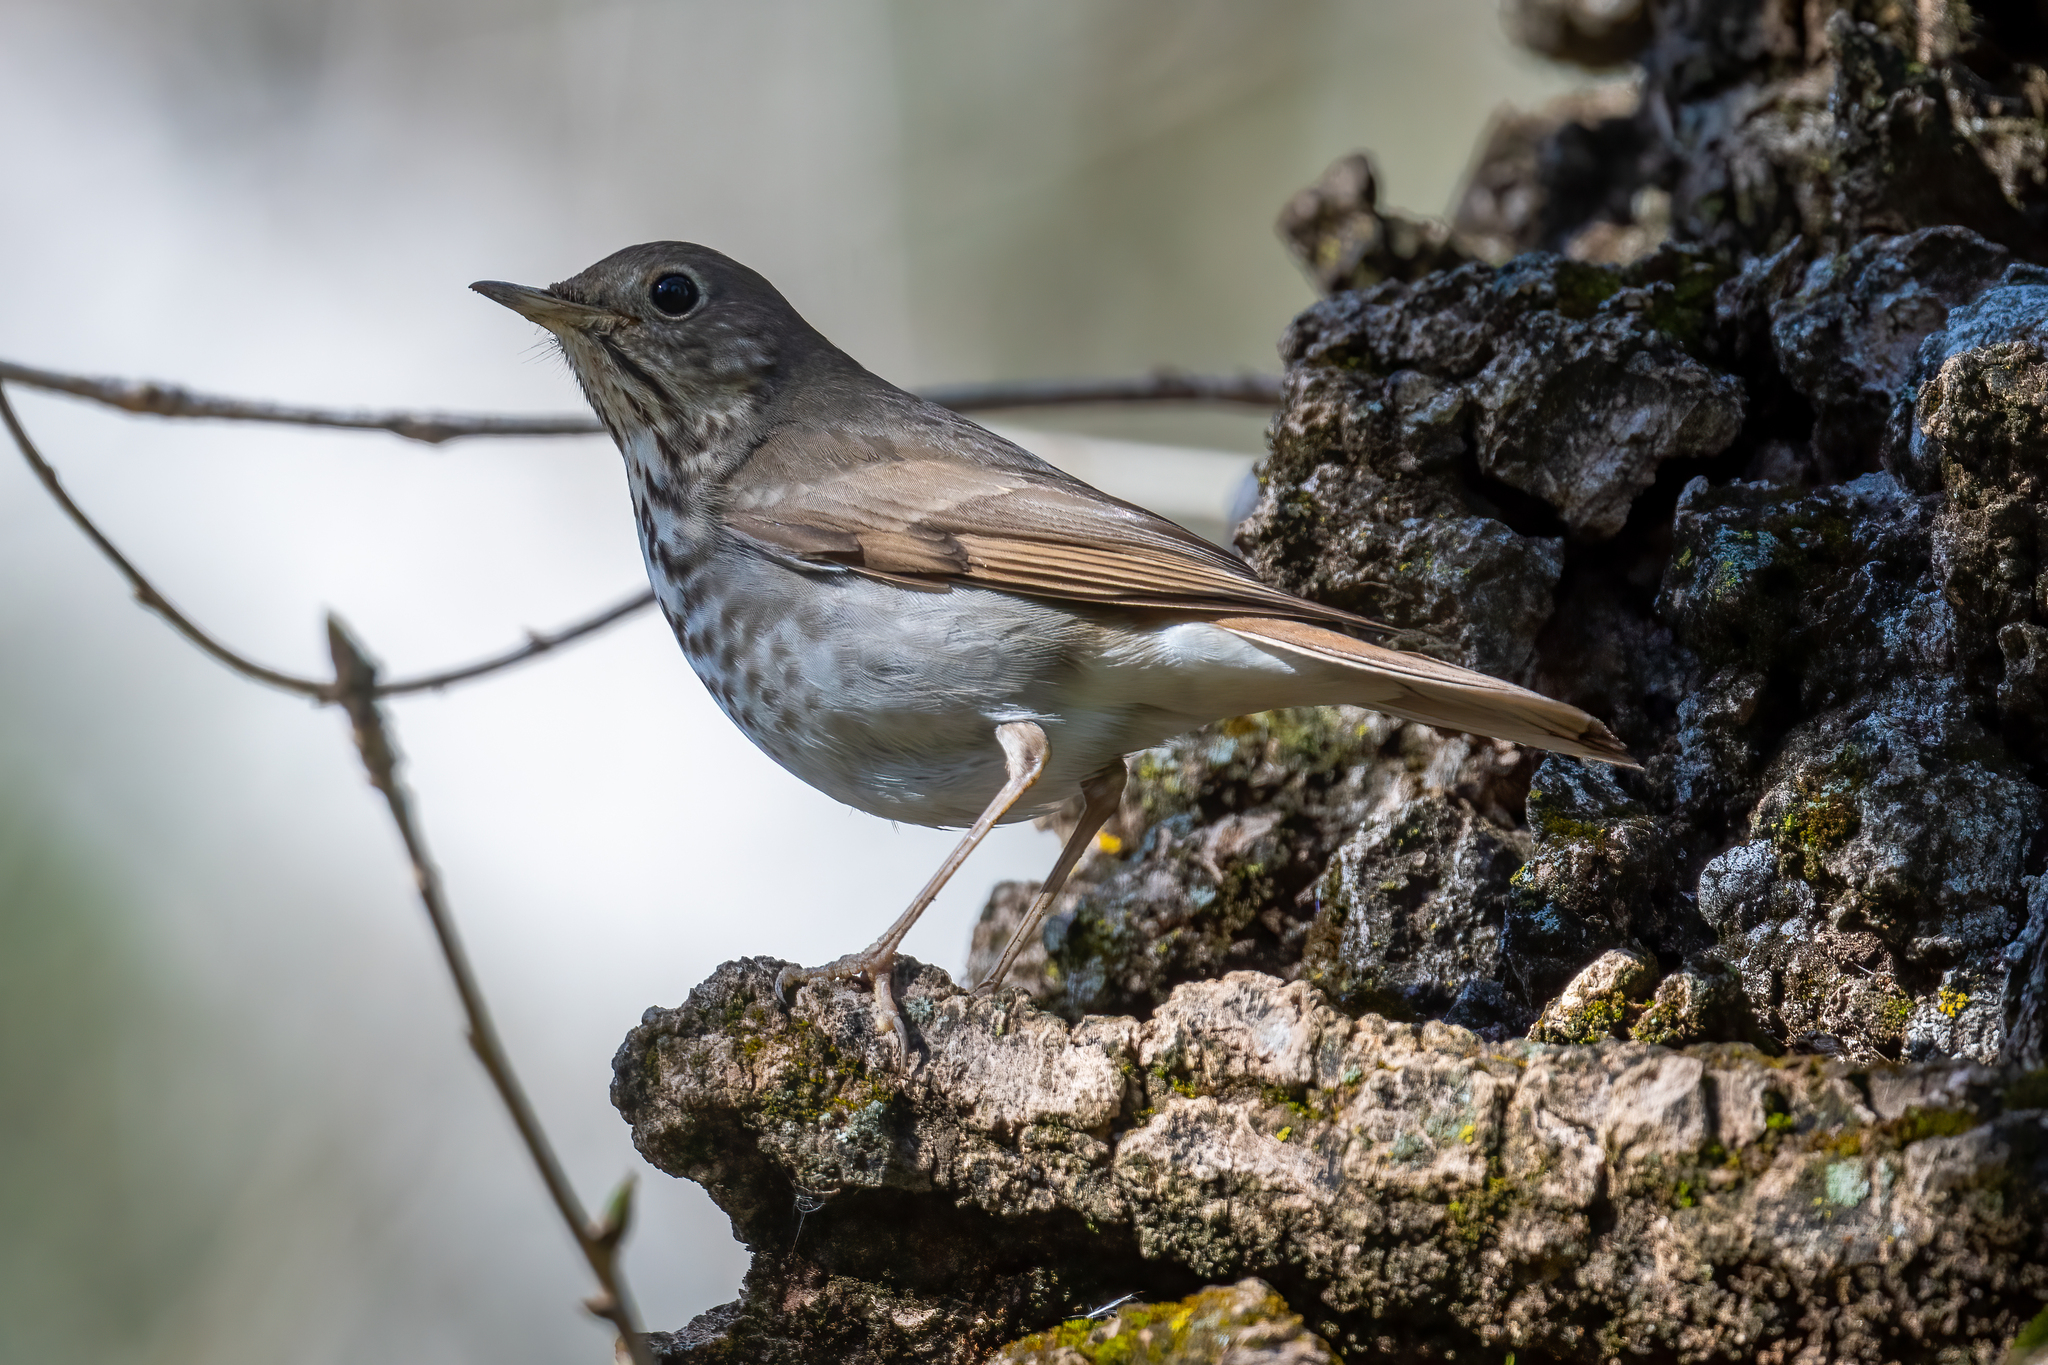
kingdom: Animalia
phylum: Chordata
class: Aves
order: Passeriformes
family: Turdidae
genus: Catharus
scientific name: Catharus guttatus
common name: Hermit thrush
